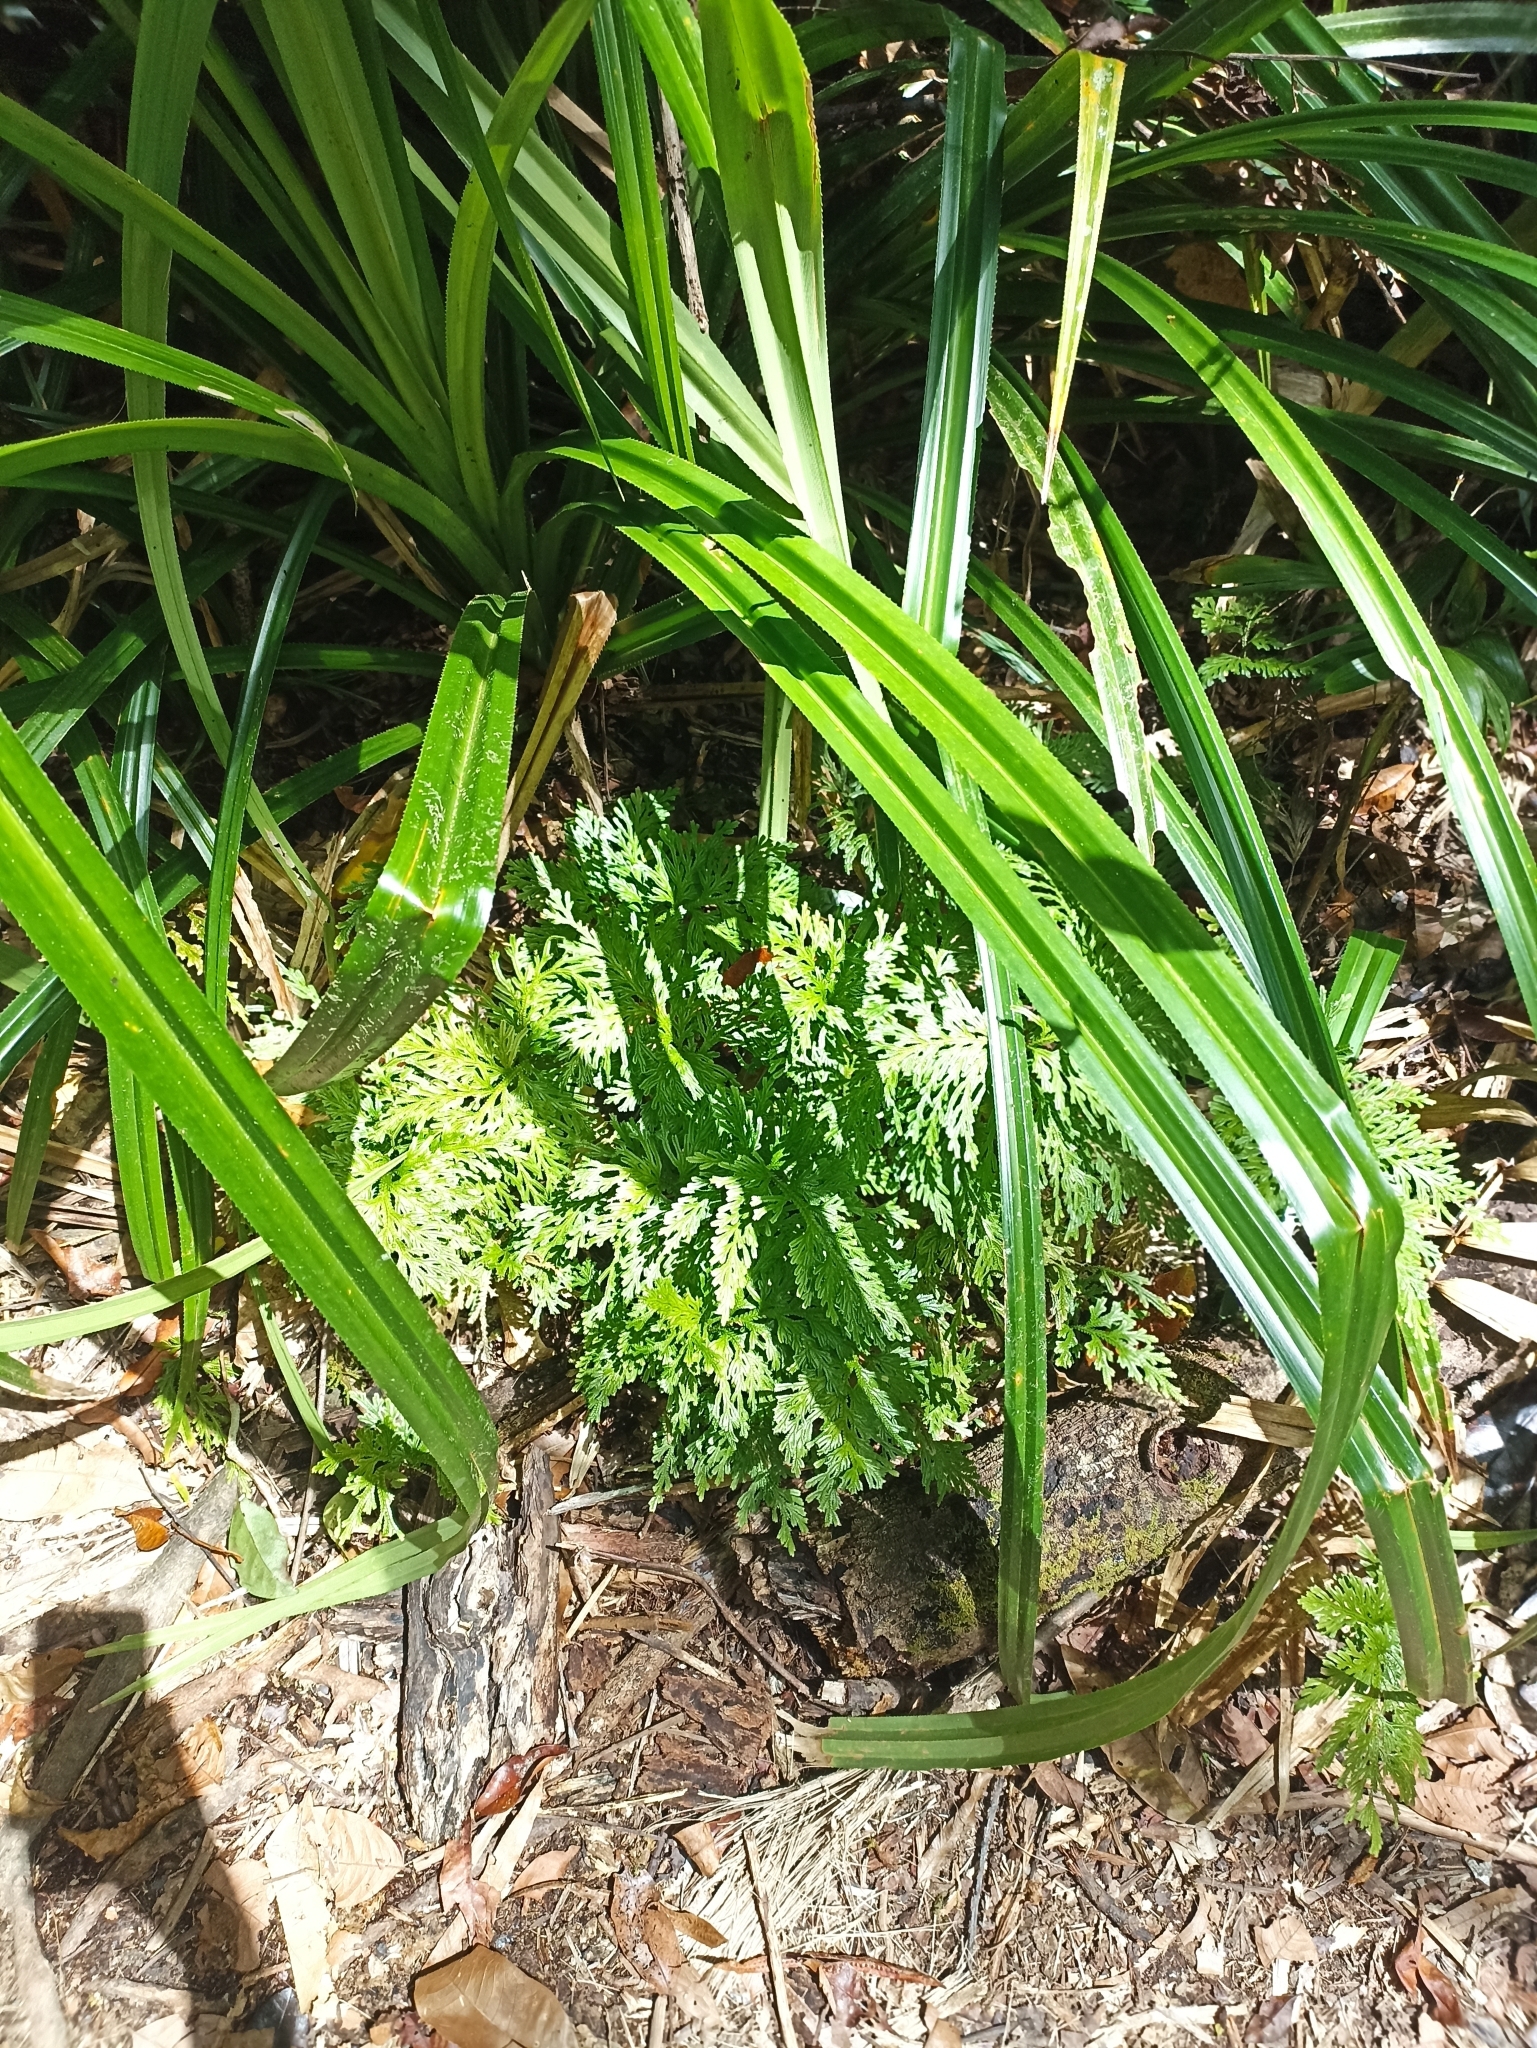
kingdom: Plantae
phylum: Tracheophyta
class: Lycopodiopsida
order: Selaginellales
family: Selaginellaceae
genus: Selaginella
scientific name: Selaginella longipinna
